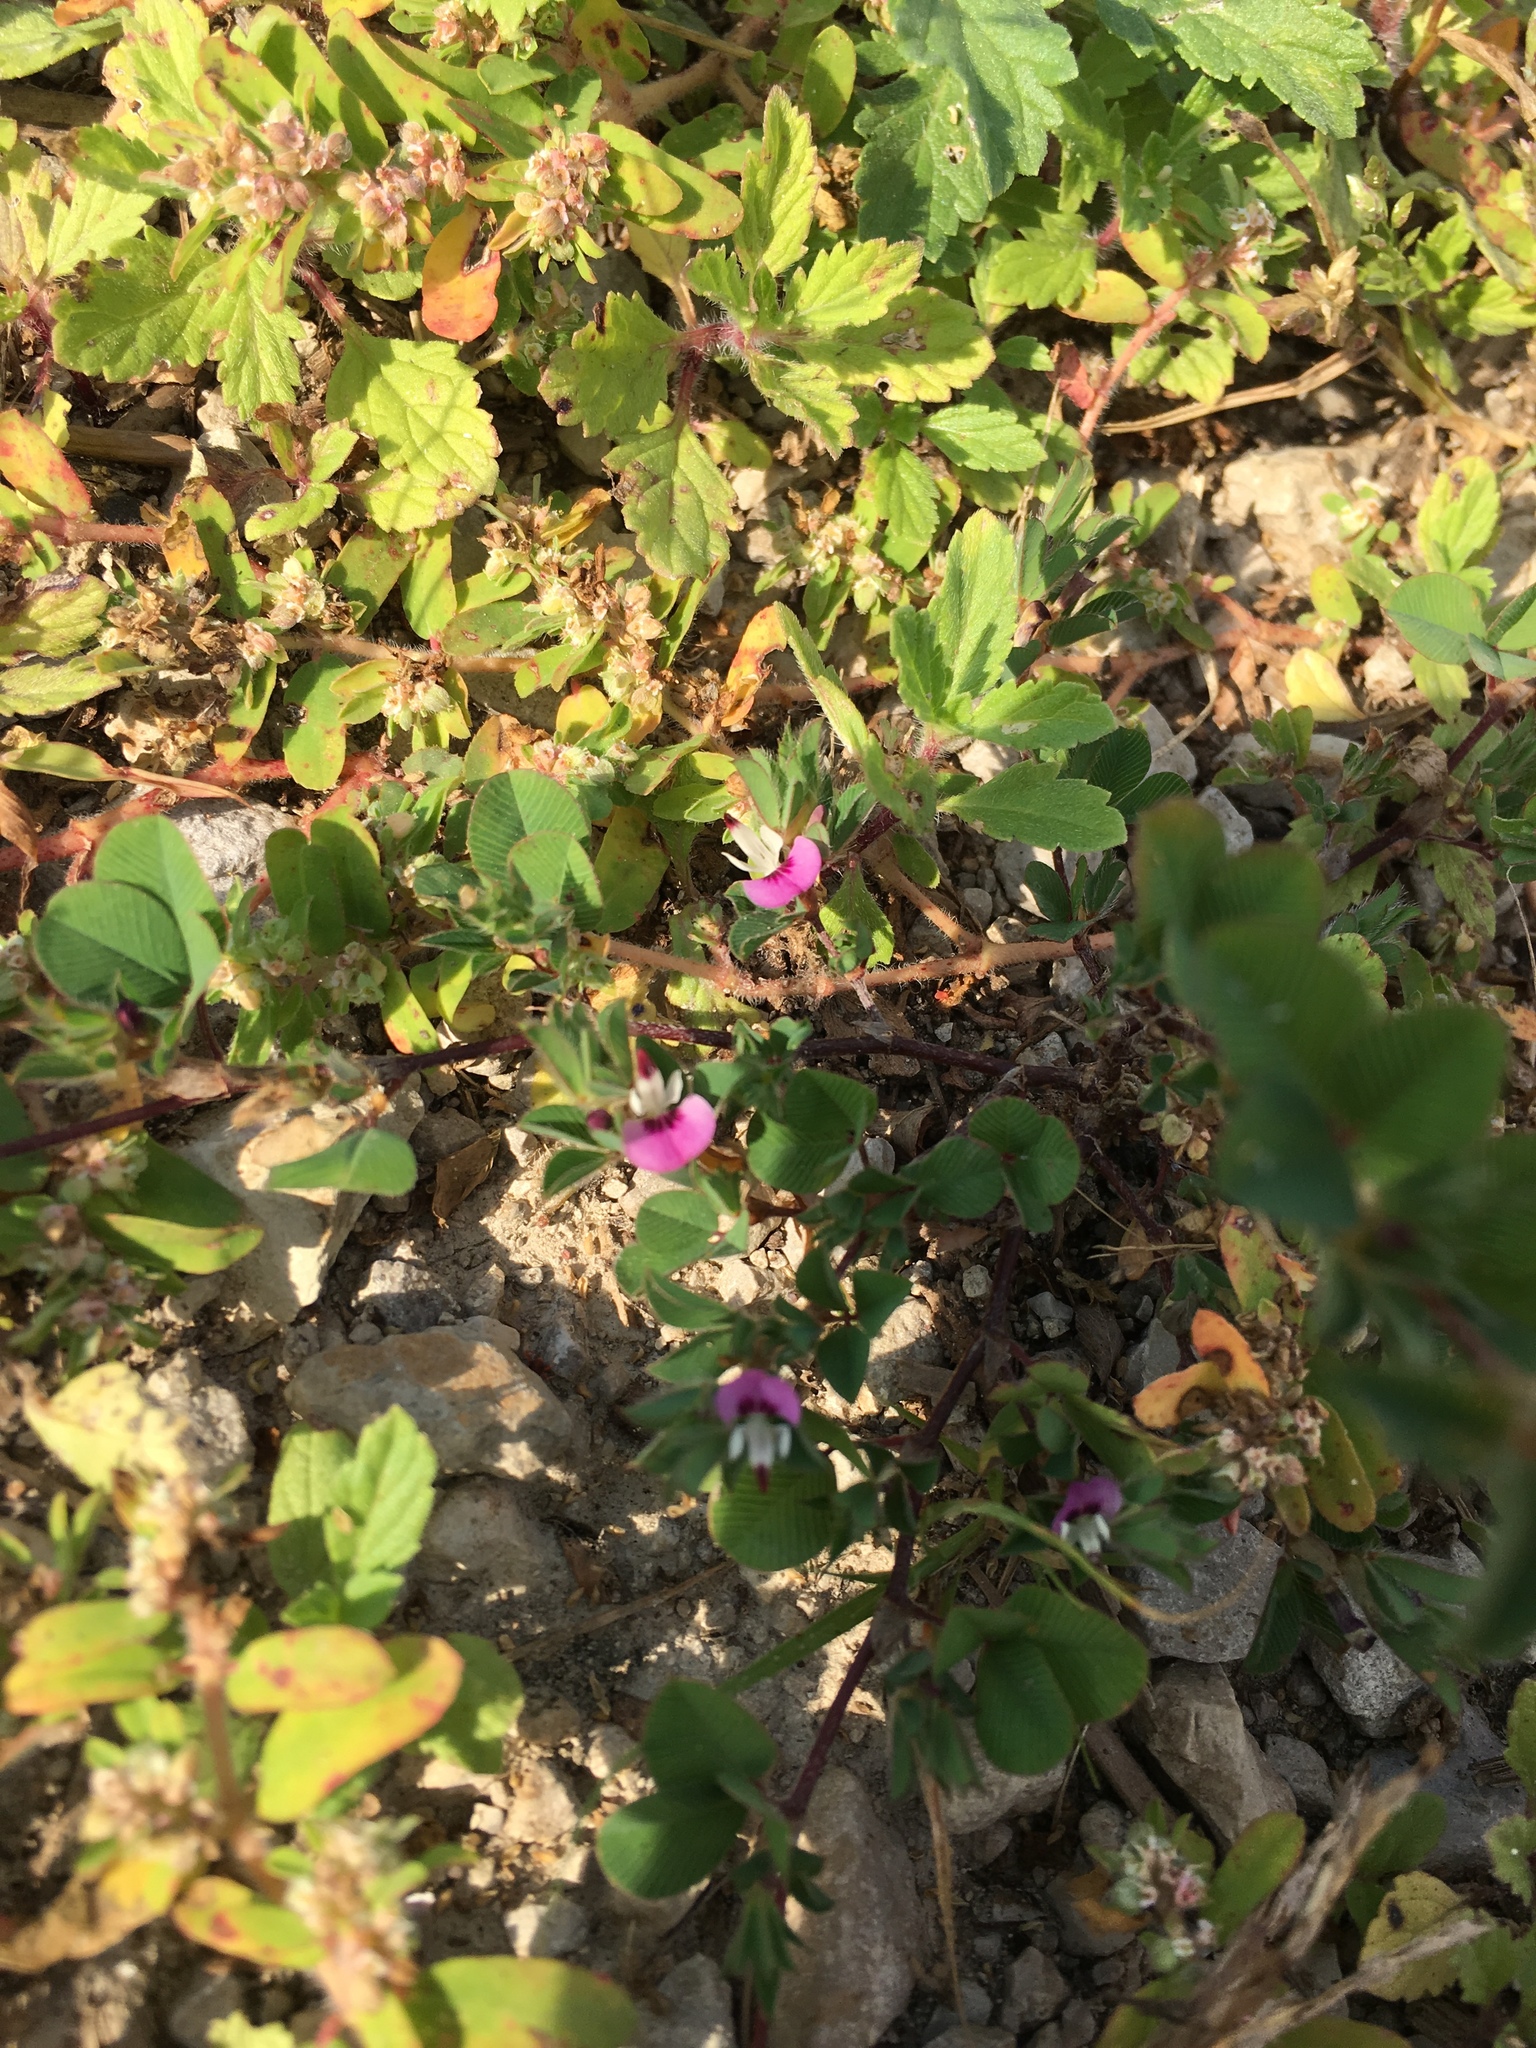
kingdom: Plantae
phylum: Tracheophyta
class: Magnoliopsida
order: Fabales
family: Fabaceae
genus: Kummerowia
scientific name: Kummerowia stipulacea
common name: Korean clover
